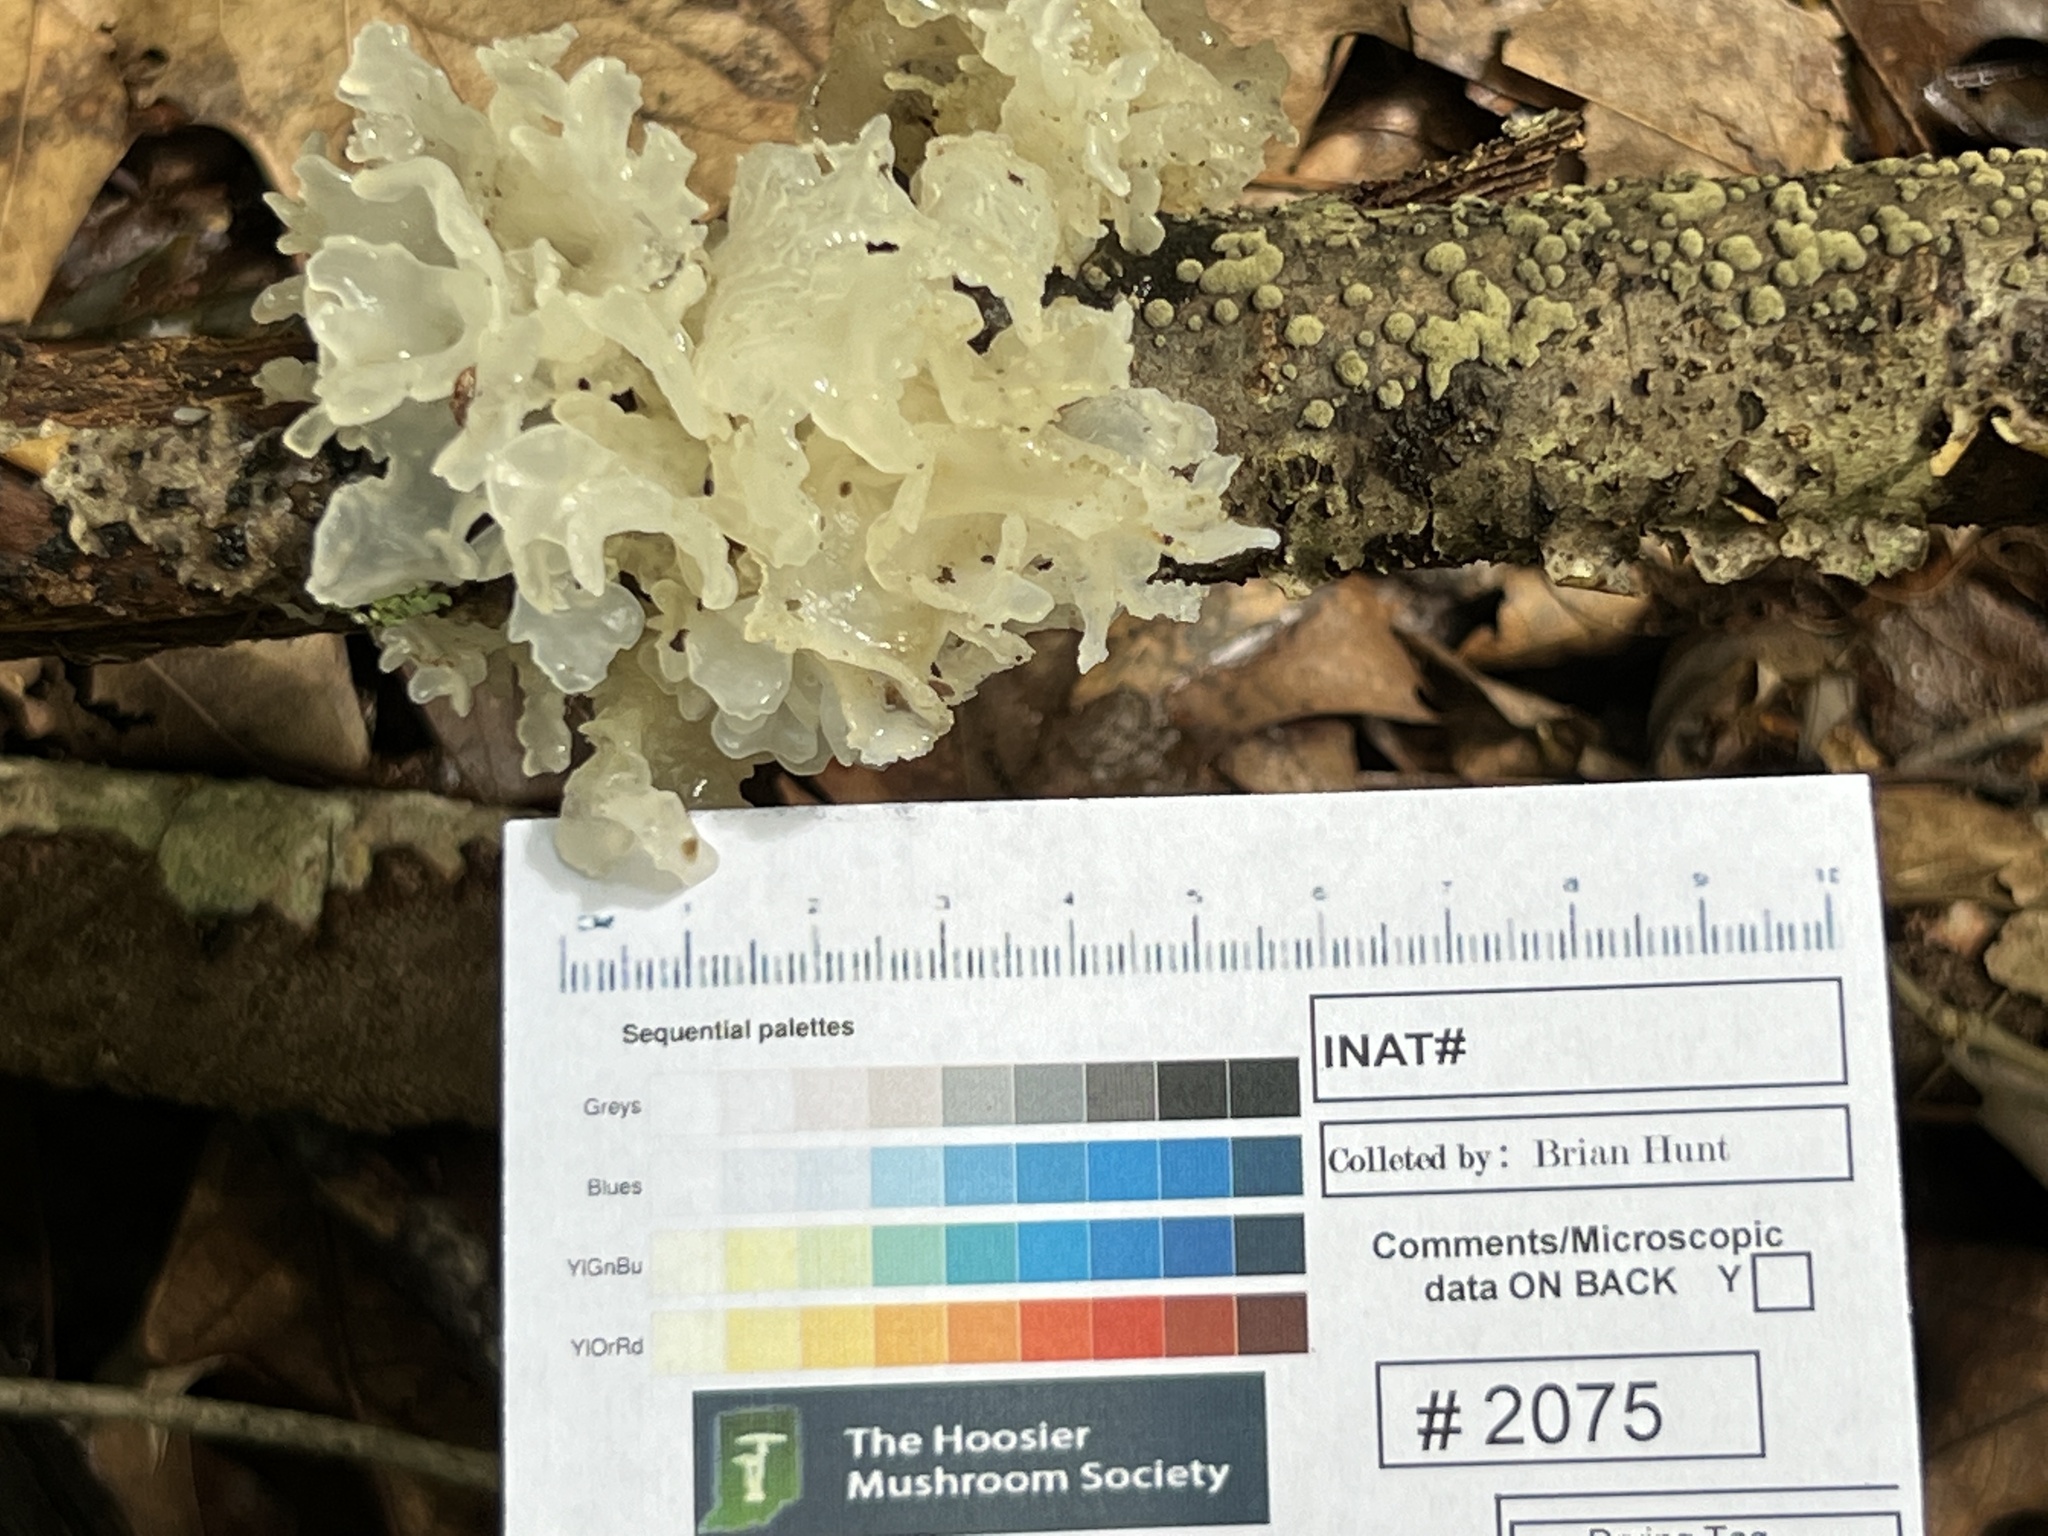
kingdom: Fungi
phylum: Basidiomycota
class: Tremellomycetes
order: Tremellales
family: Tremellaceae
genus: Tremella
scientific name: Tremella fuciformis
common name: Snow fungus
